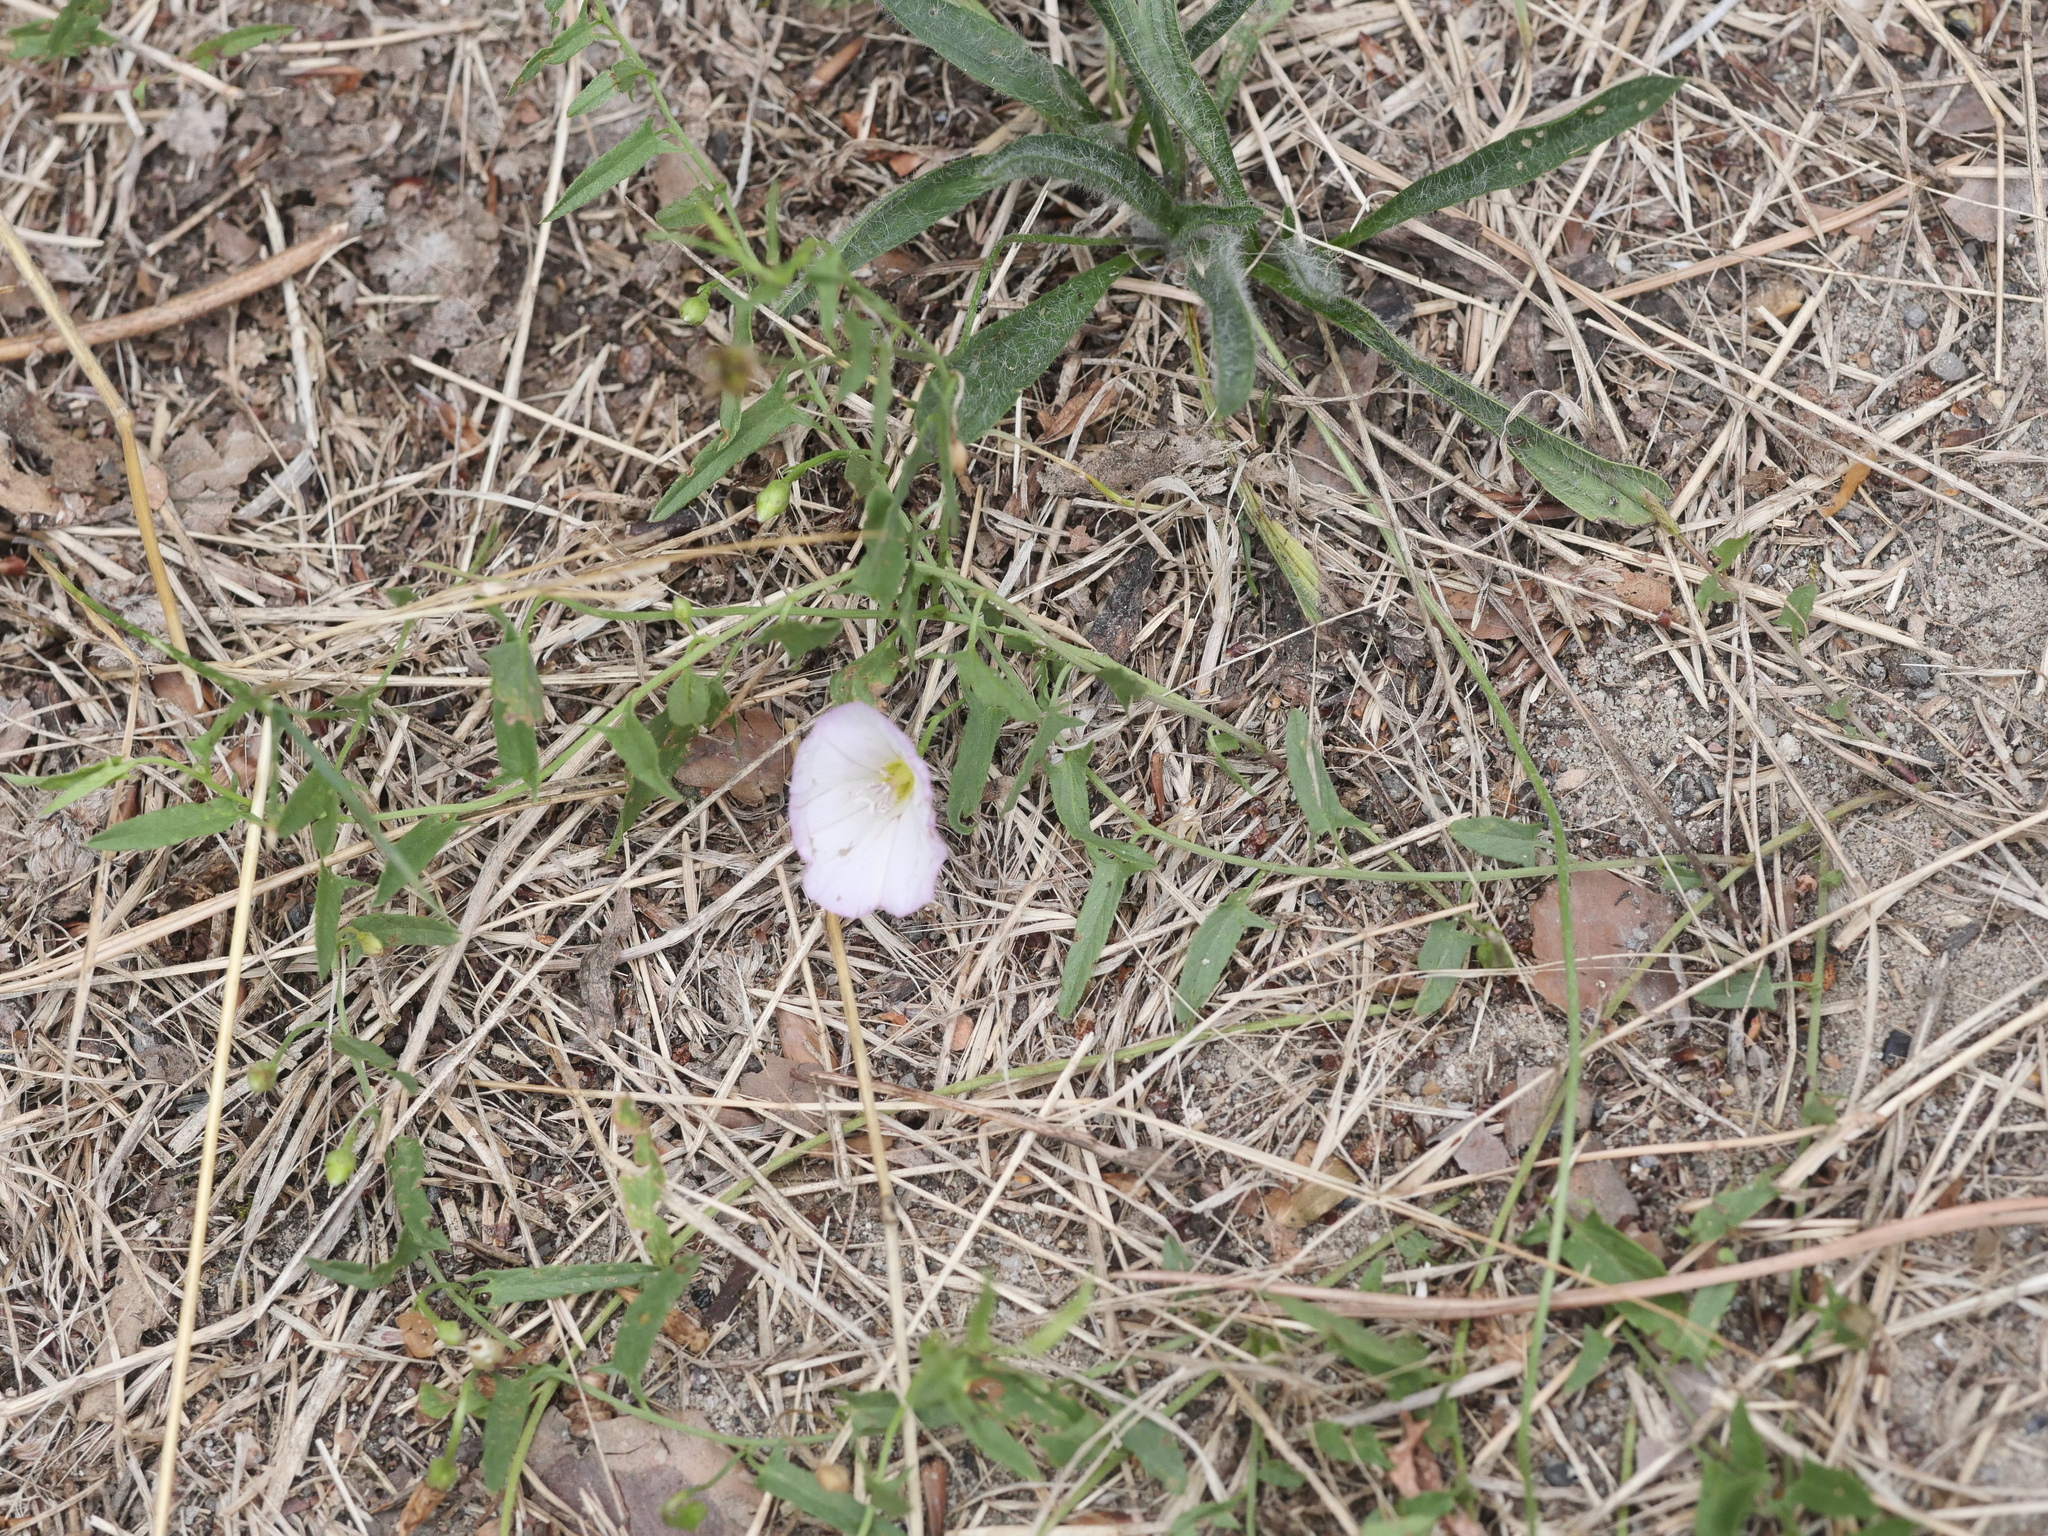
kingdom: Plantae
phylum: Tracheophyta
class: Magnoliopsida
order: Solanales
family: Convolvulaceae
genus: Convolvulus
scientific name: Convolvulus arvensis
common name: Field bindweed
